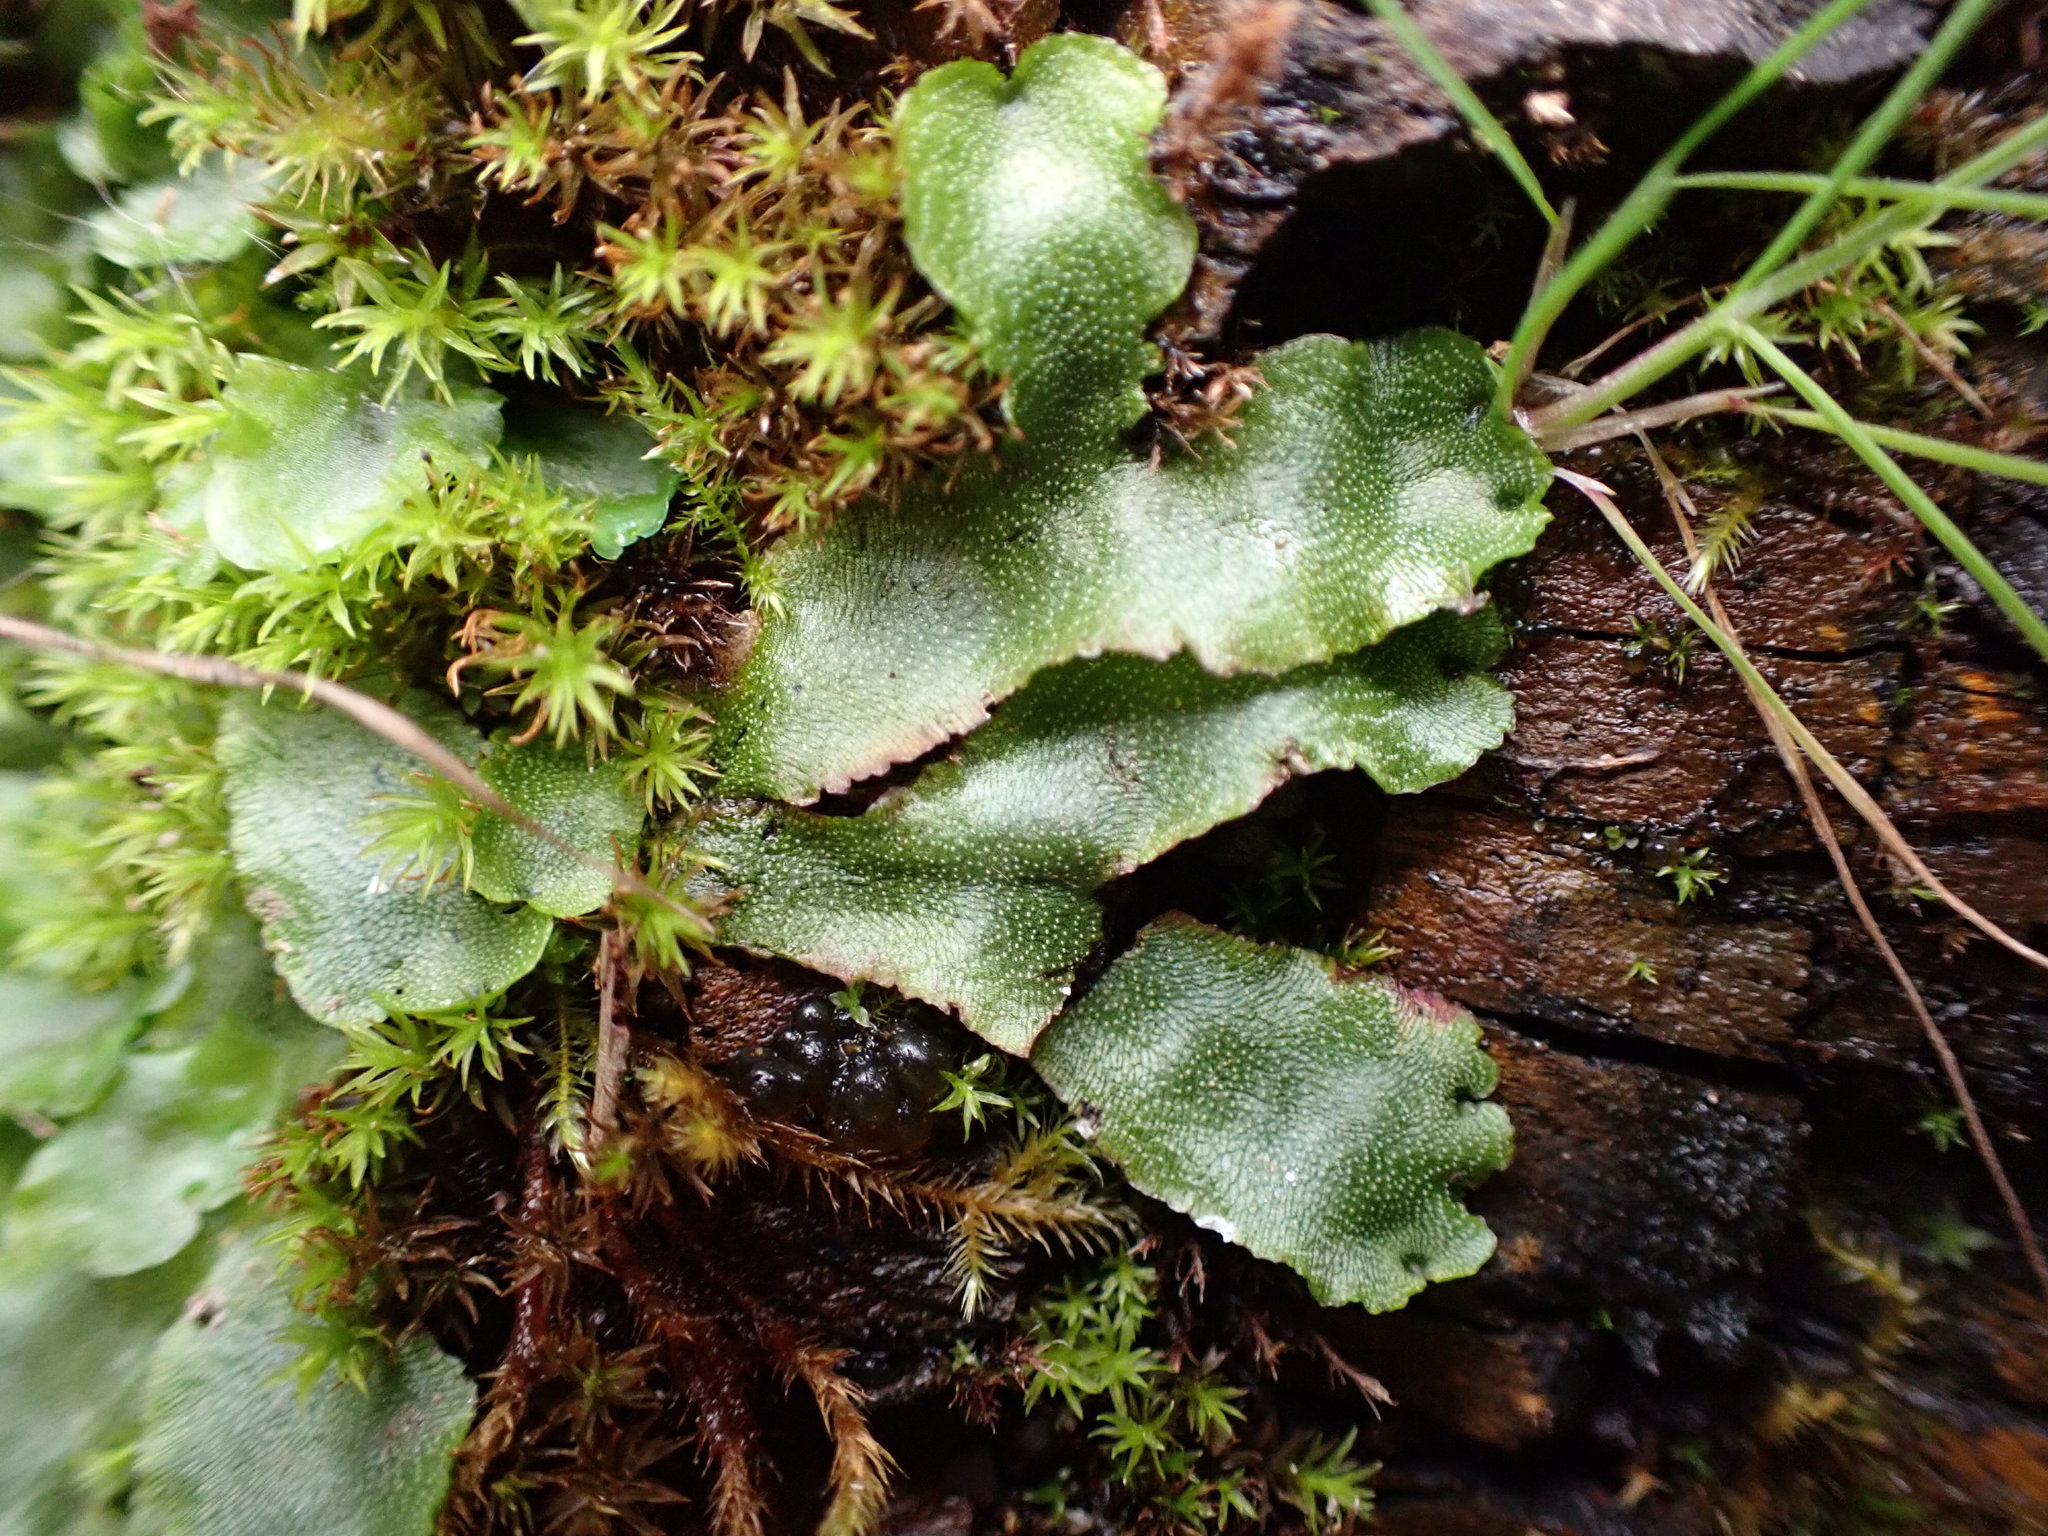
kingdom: Plantae
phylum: Marchantiophyta
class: Marchantiopsida
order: Marchantiales
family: Marchantiaceae
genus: Marchantia
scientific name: Marchantia quadrata
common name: Narrow mushroom-headed liverwort
